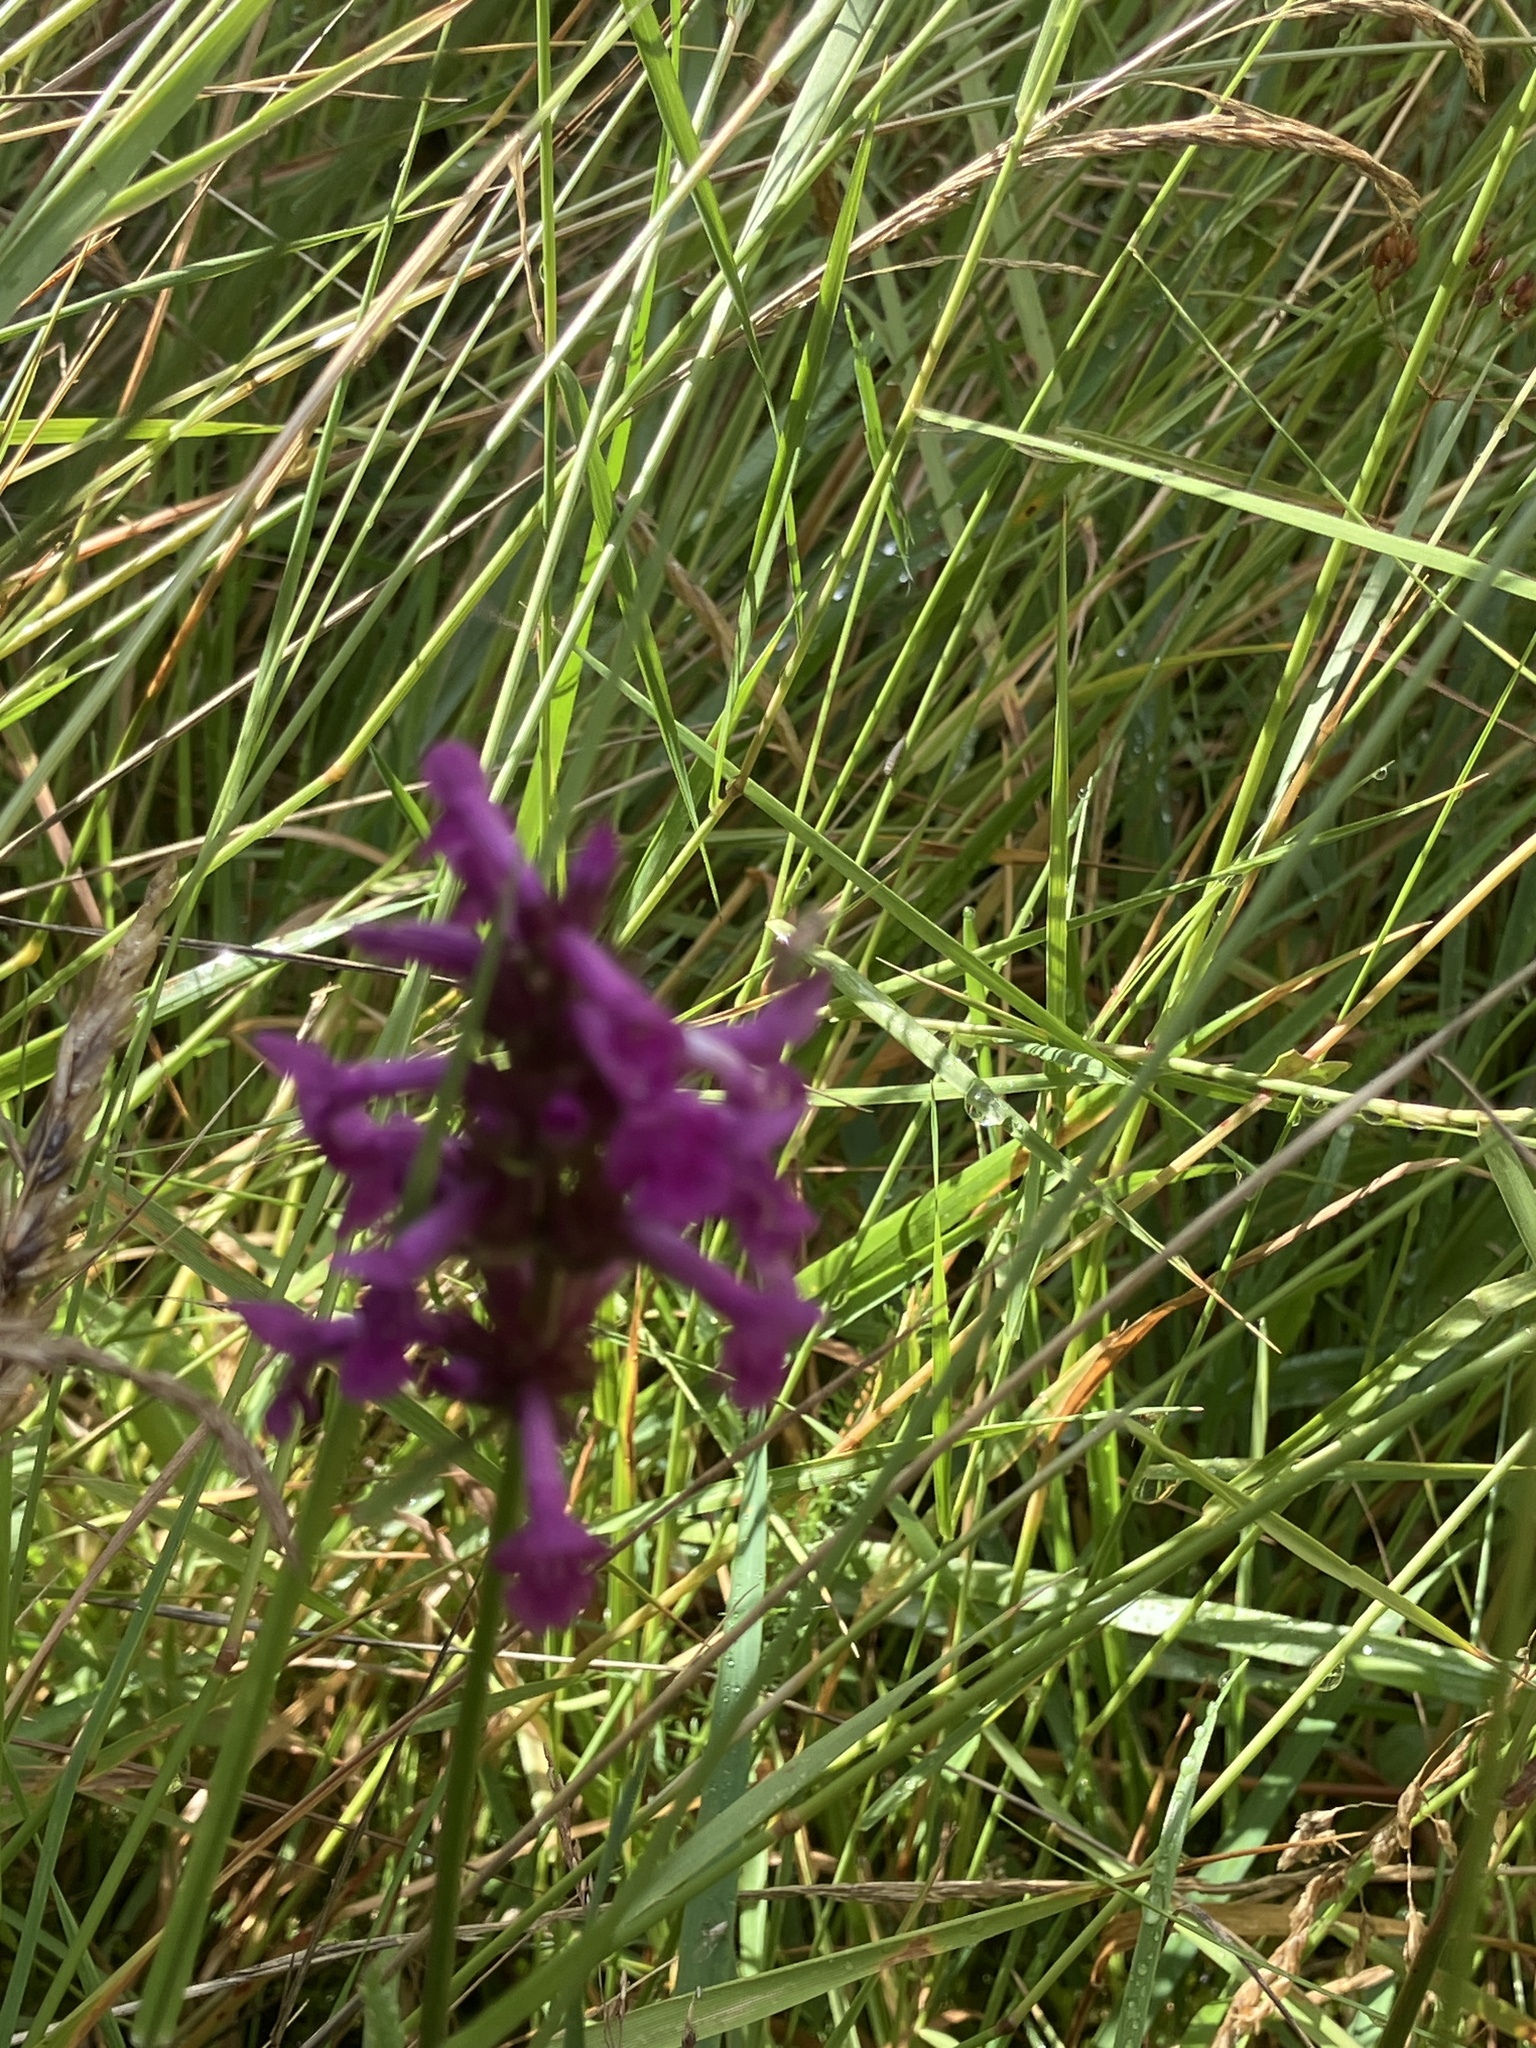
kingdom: Plantae
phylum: Tracheophyta
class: Magnoliopsida
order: Lamiales
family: Lamiaceae
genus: Betonica
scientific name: Betonica officinalis
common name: Bishop's-wort
